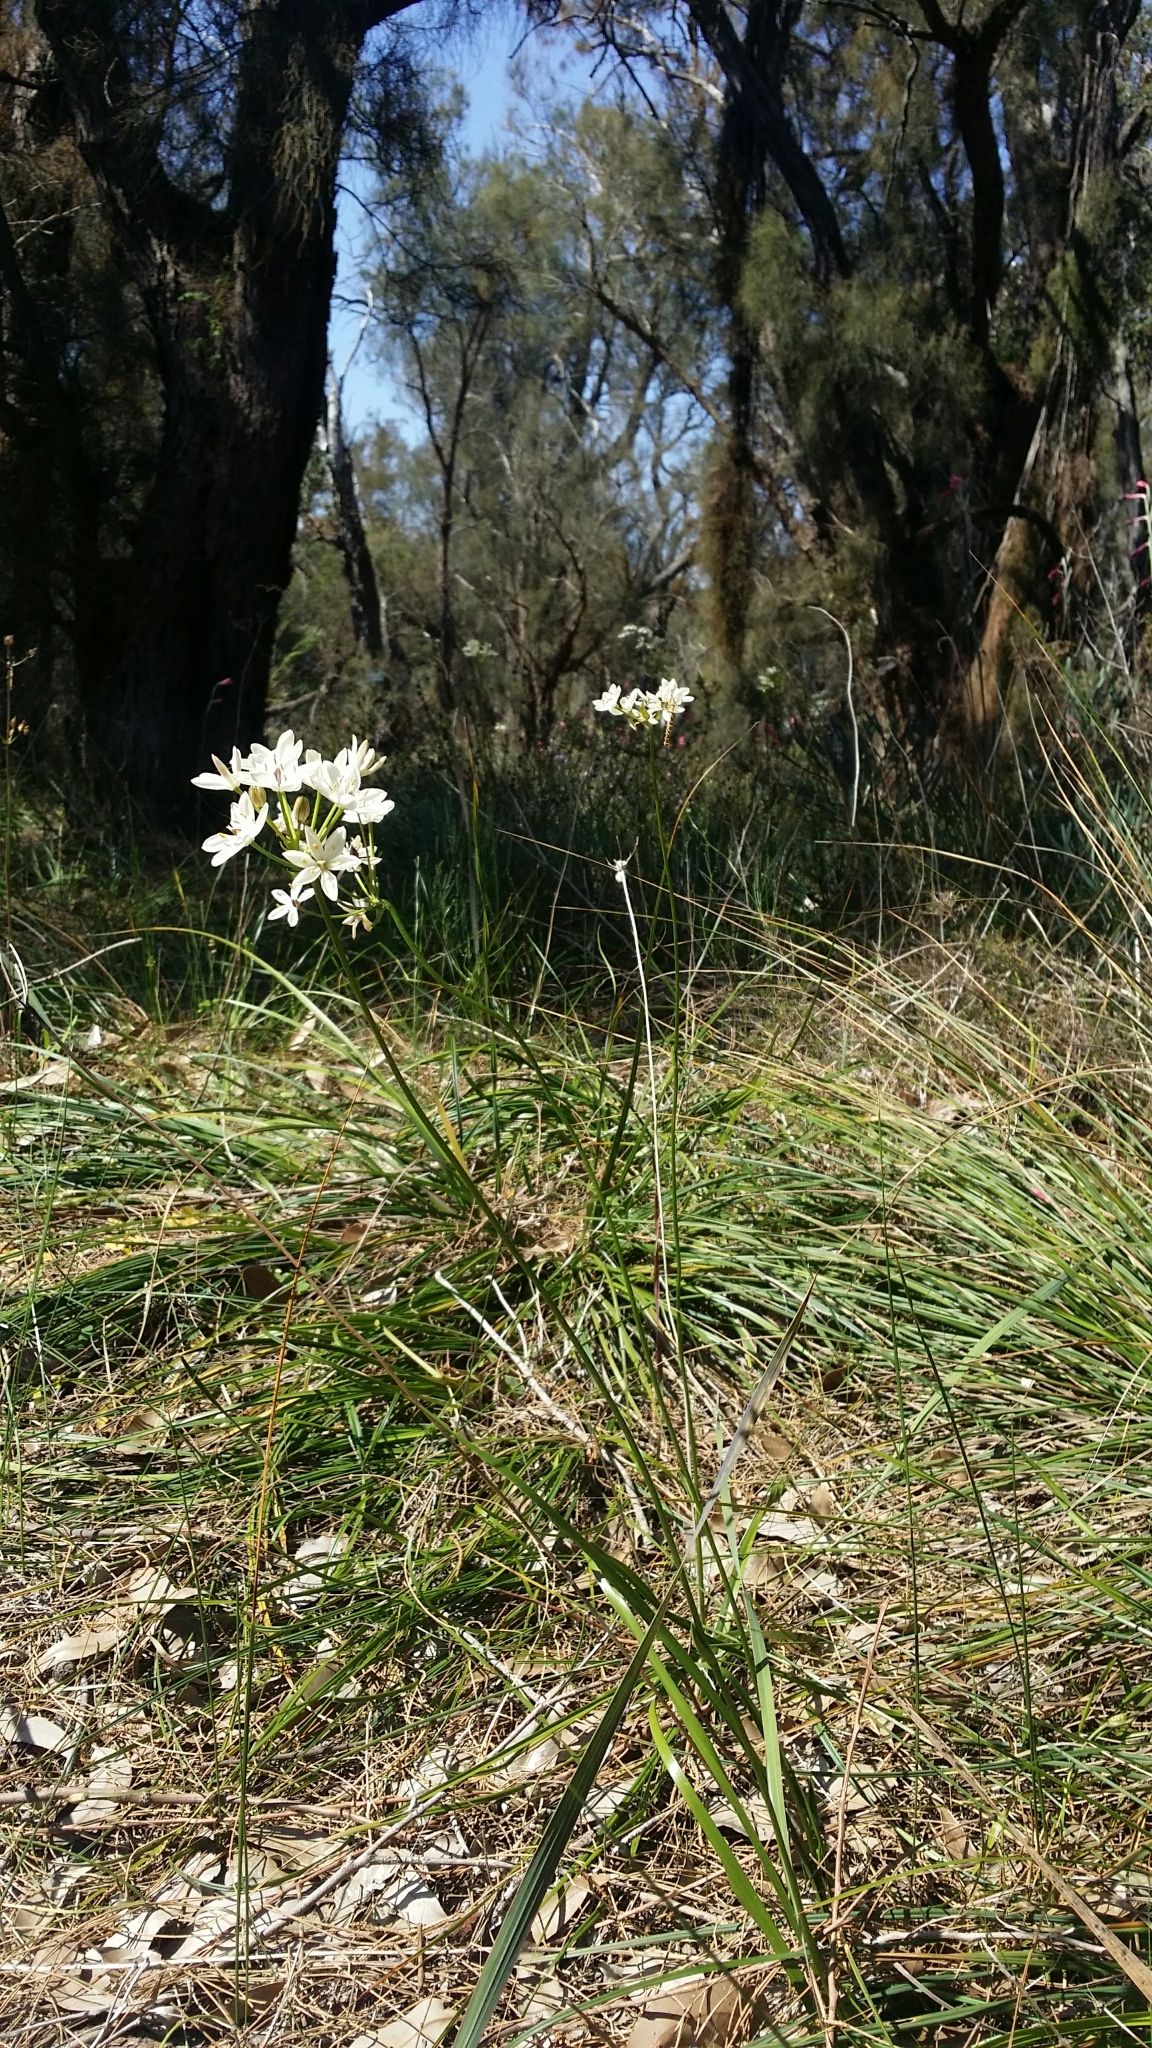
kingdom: Plantae
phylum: Tracheophyta
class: Liliopsida
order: Liliales
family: Colchicaceae
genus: Burchardia
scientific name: Burchardia congesta
